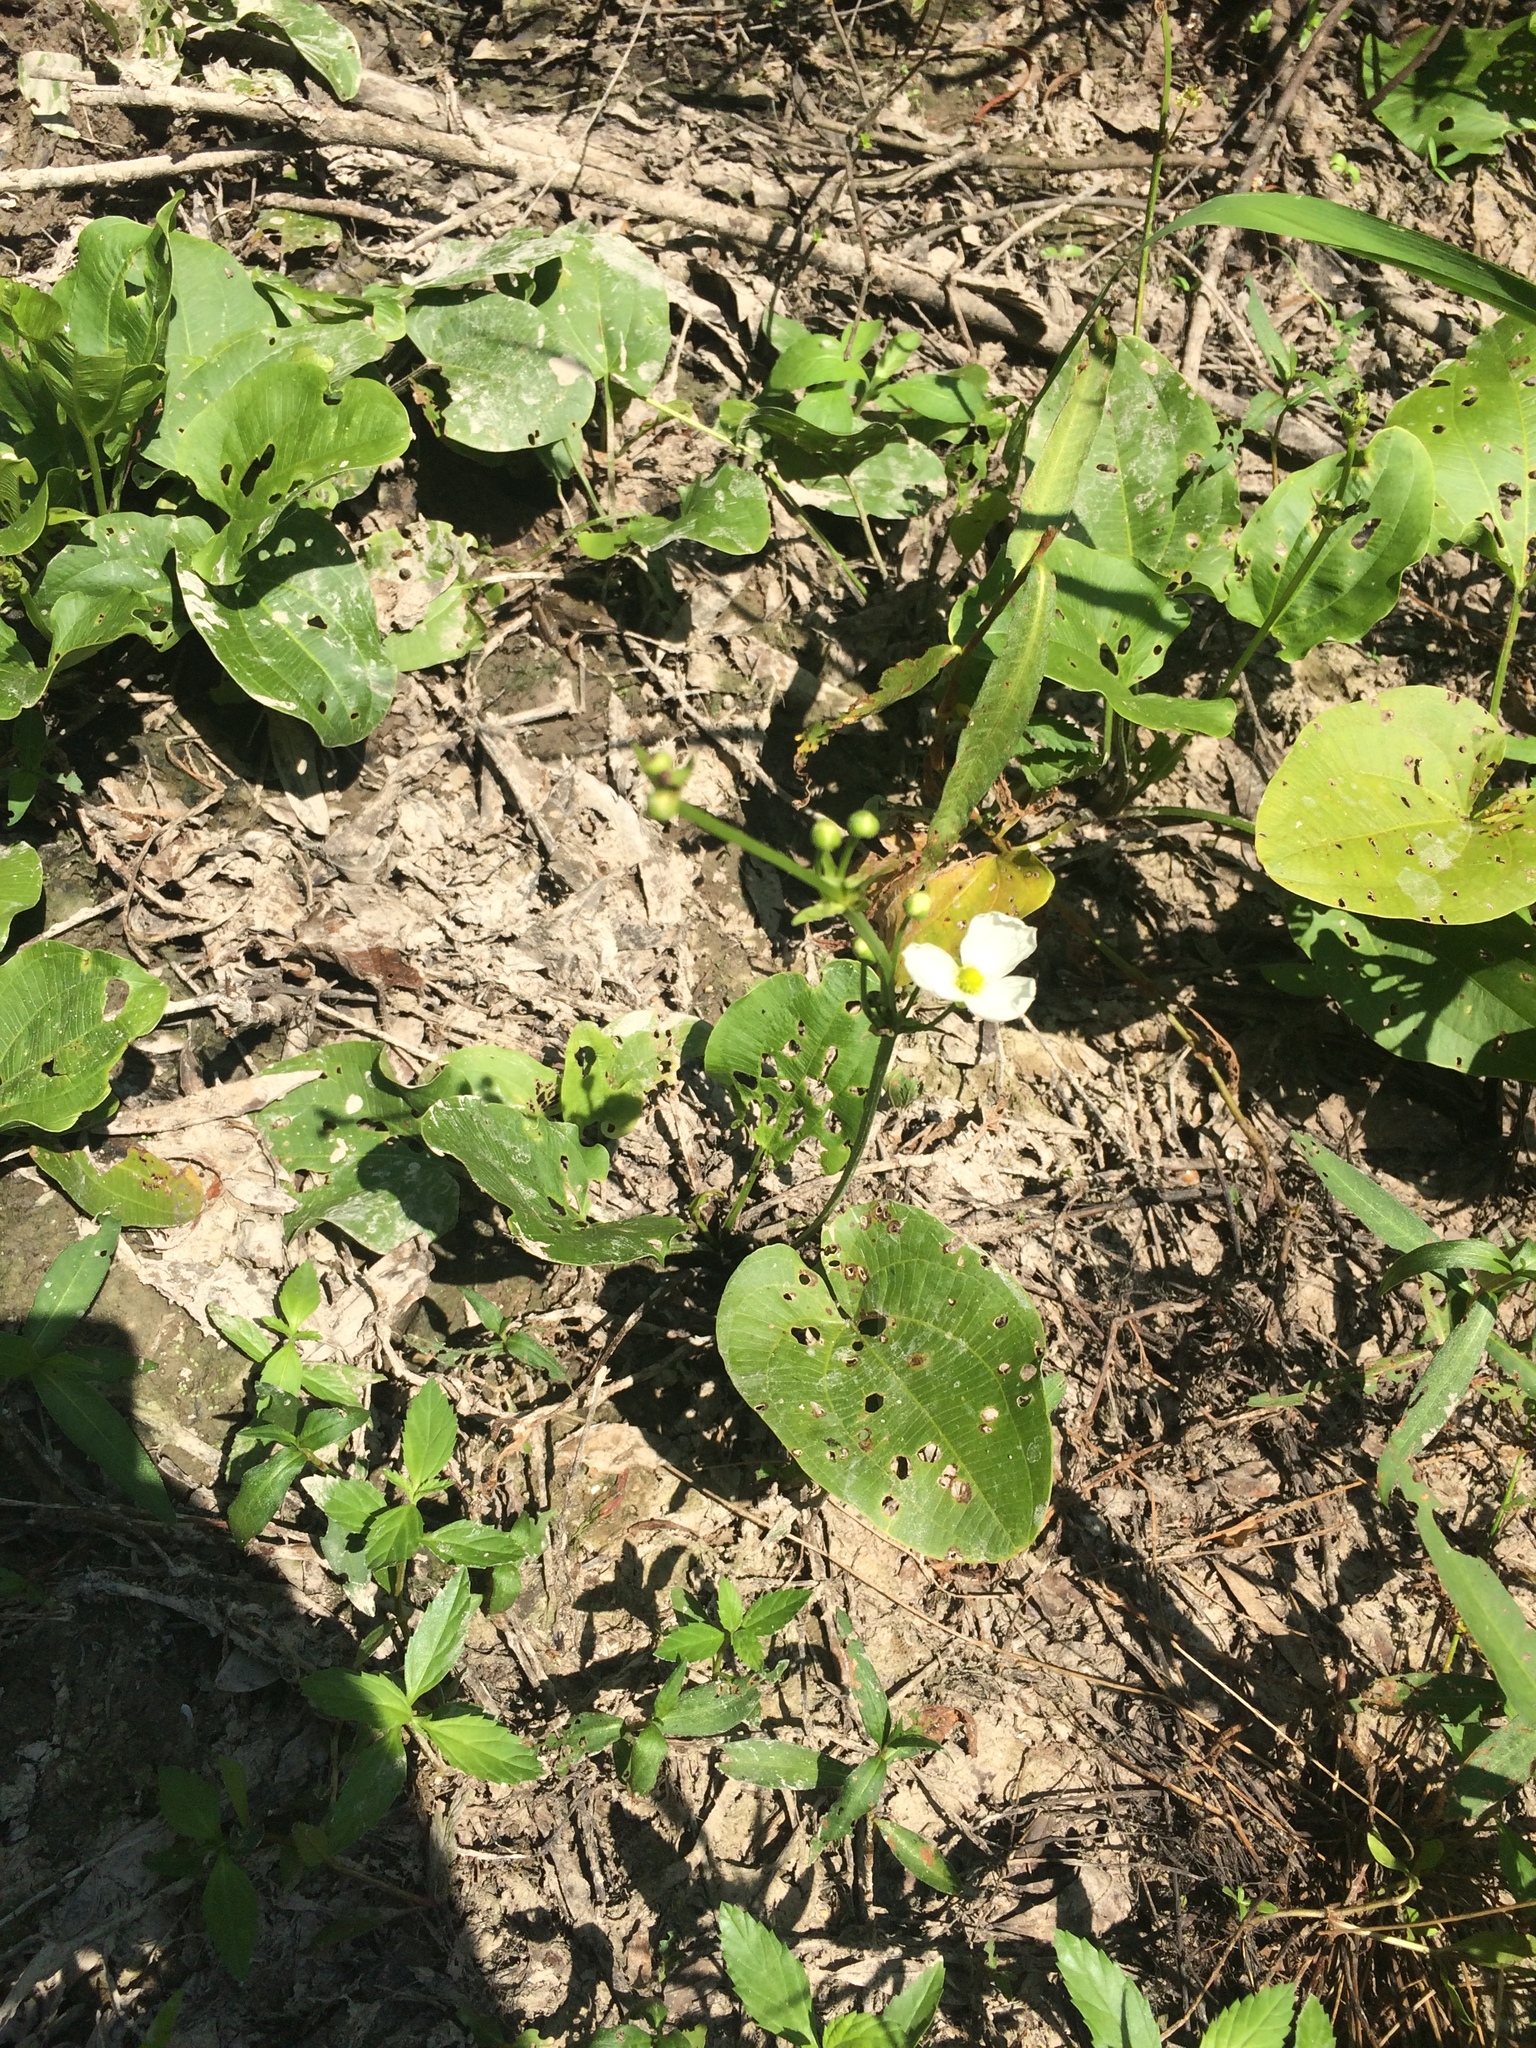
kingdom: Plantae
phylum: Tracheophyta
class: Liliopsida
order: Alismatales
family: Alismataceae
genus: Aquarius
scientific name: Aquarius cordifolius
